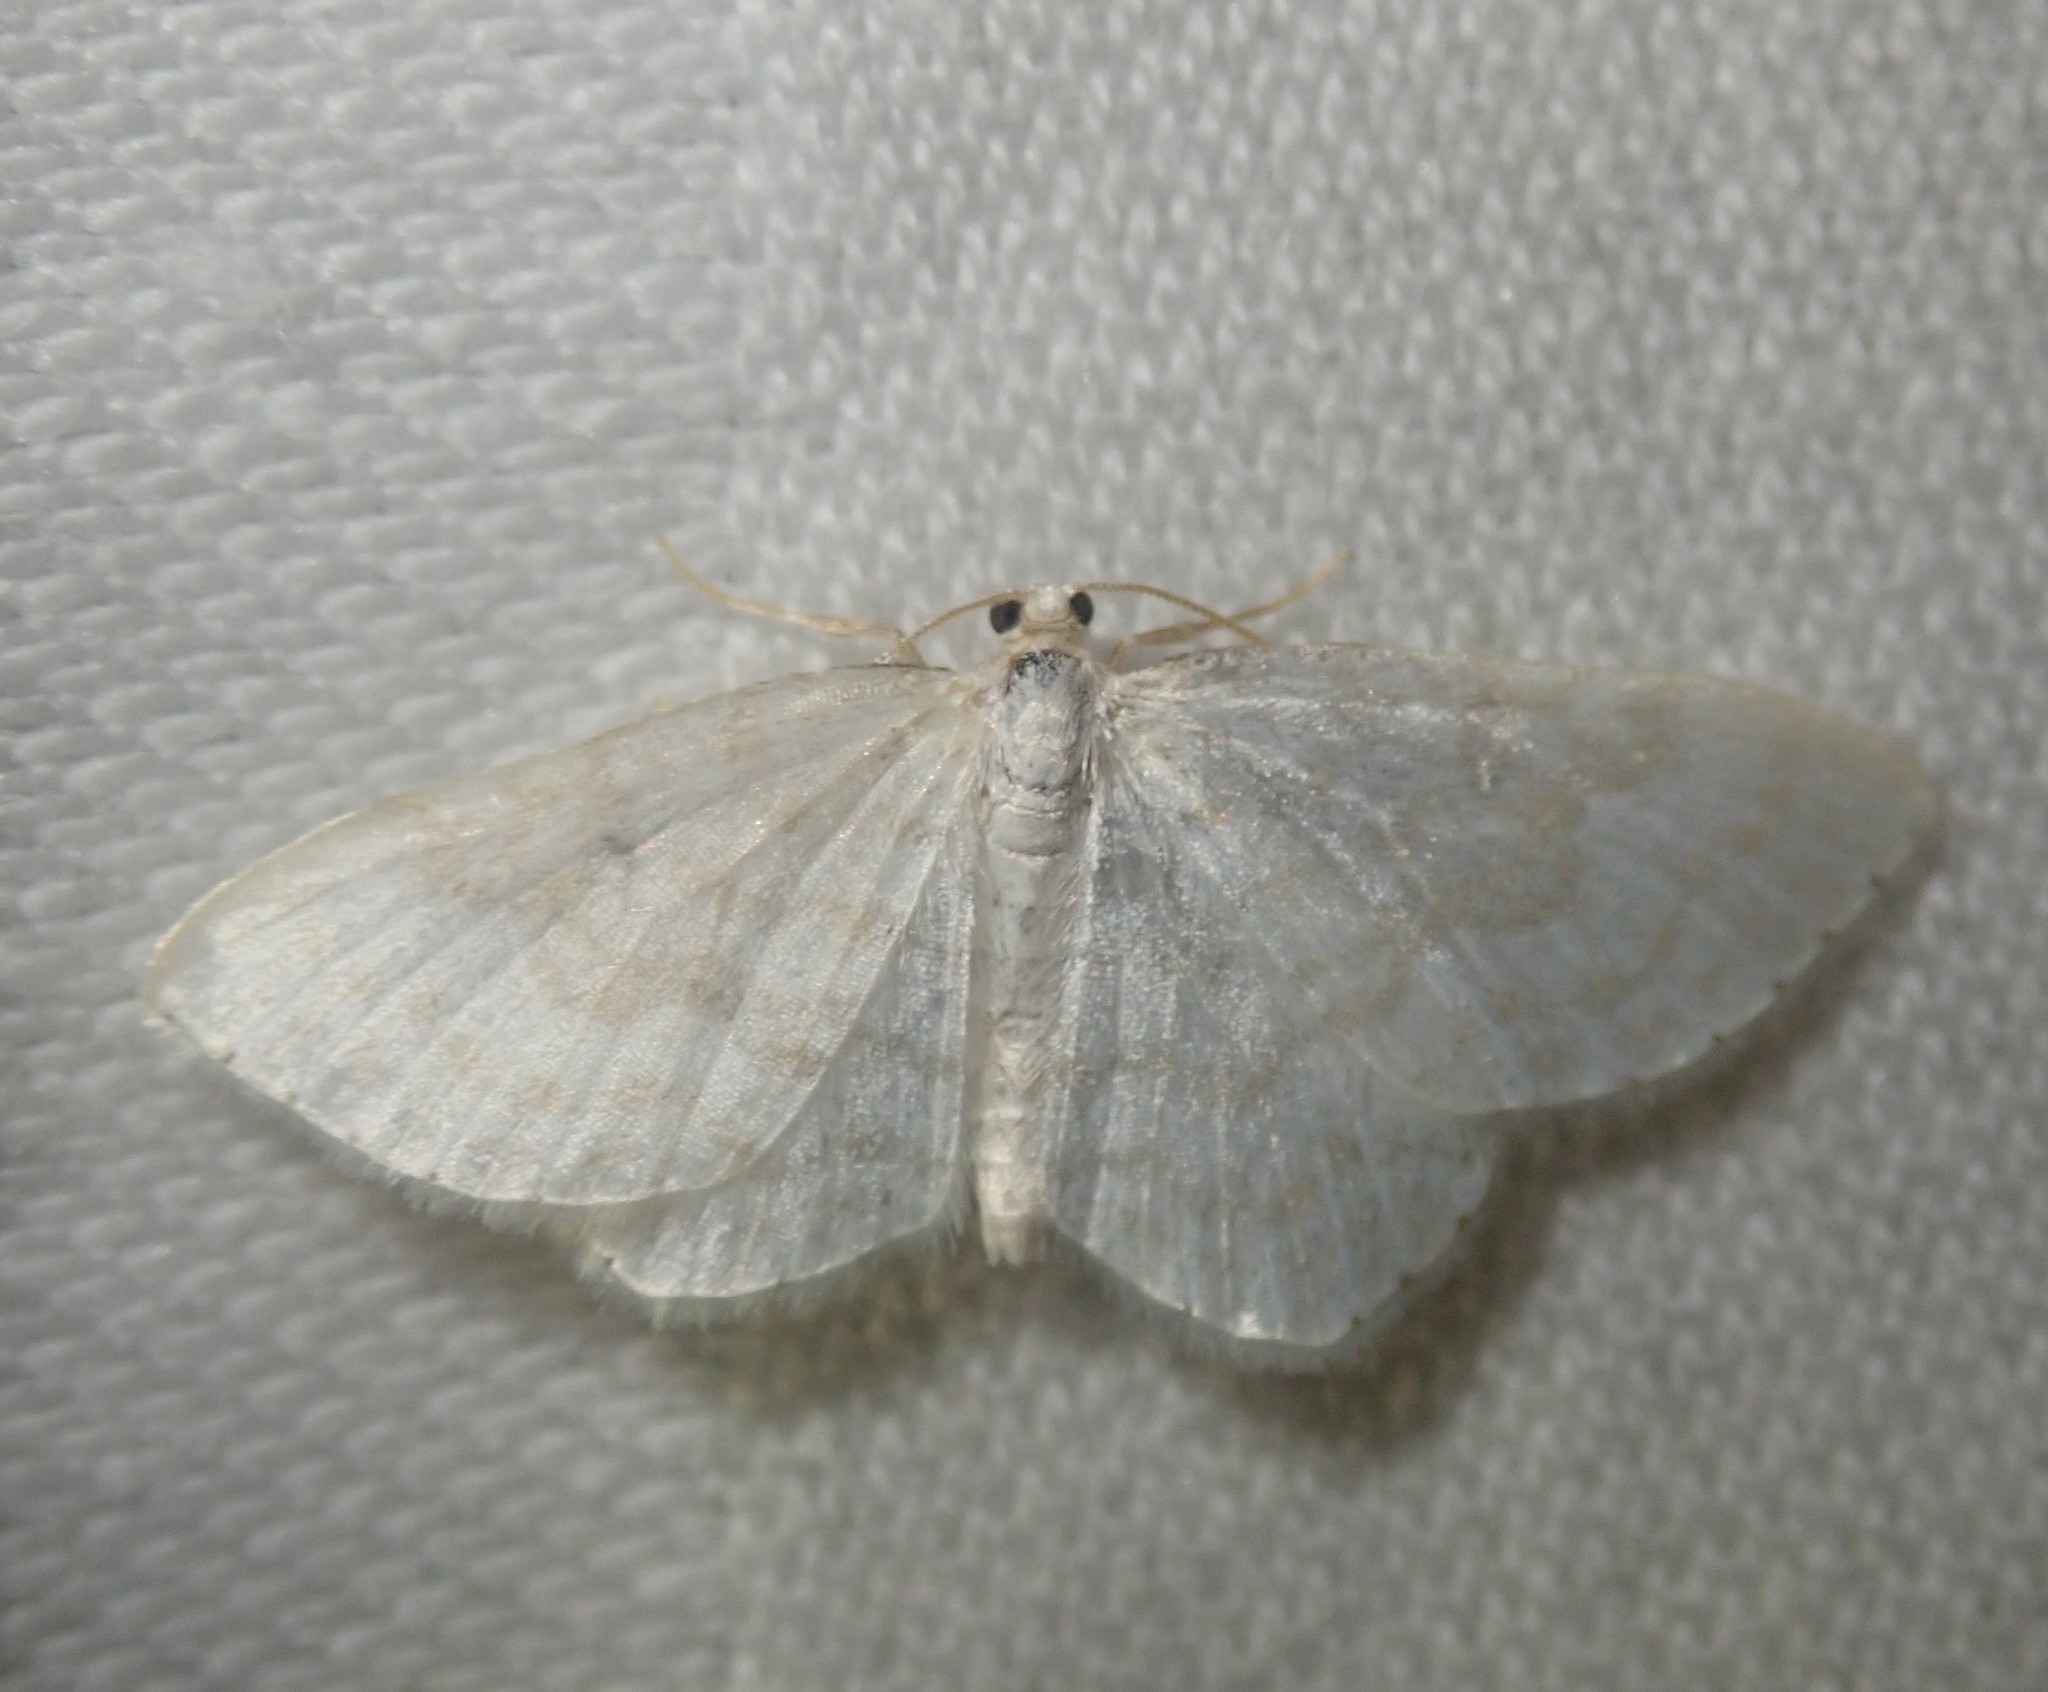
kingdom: Animalia
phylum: Arthropoda
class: Insecta
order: Lepidoptera
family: Geometridae
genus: Asthena
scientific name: Asthena albulata
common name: Small white wave
